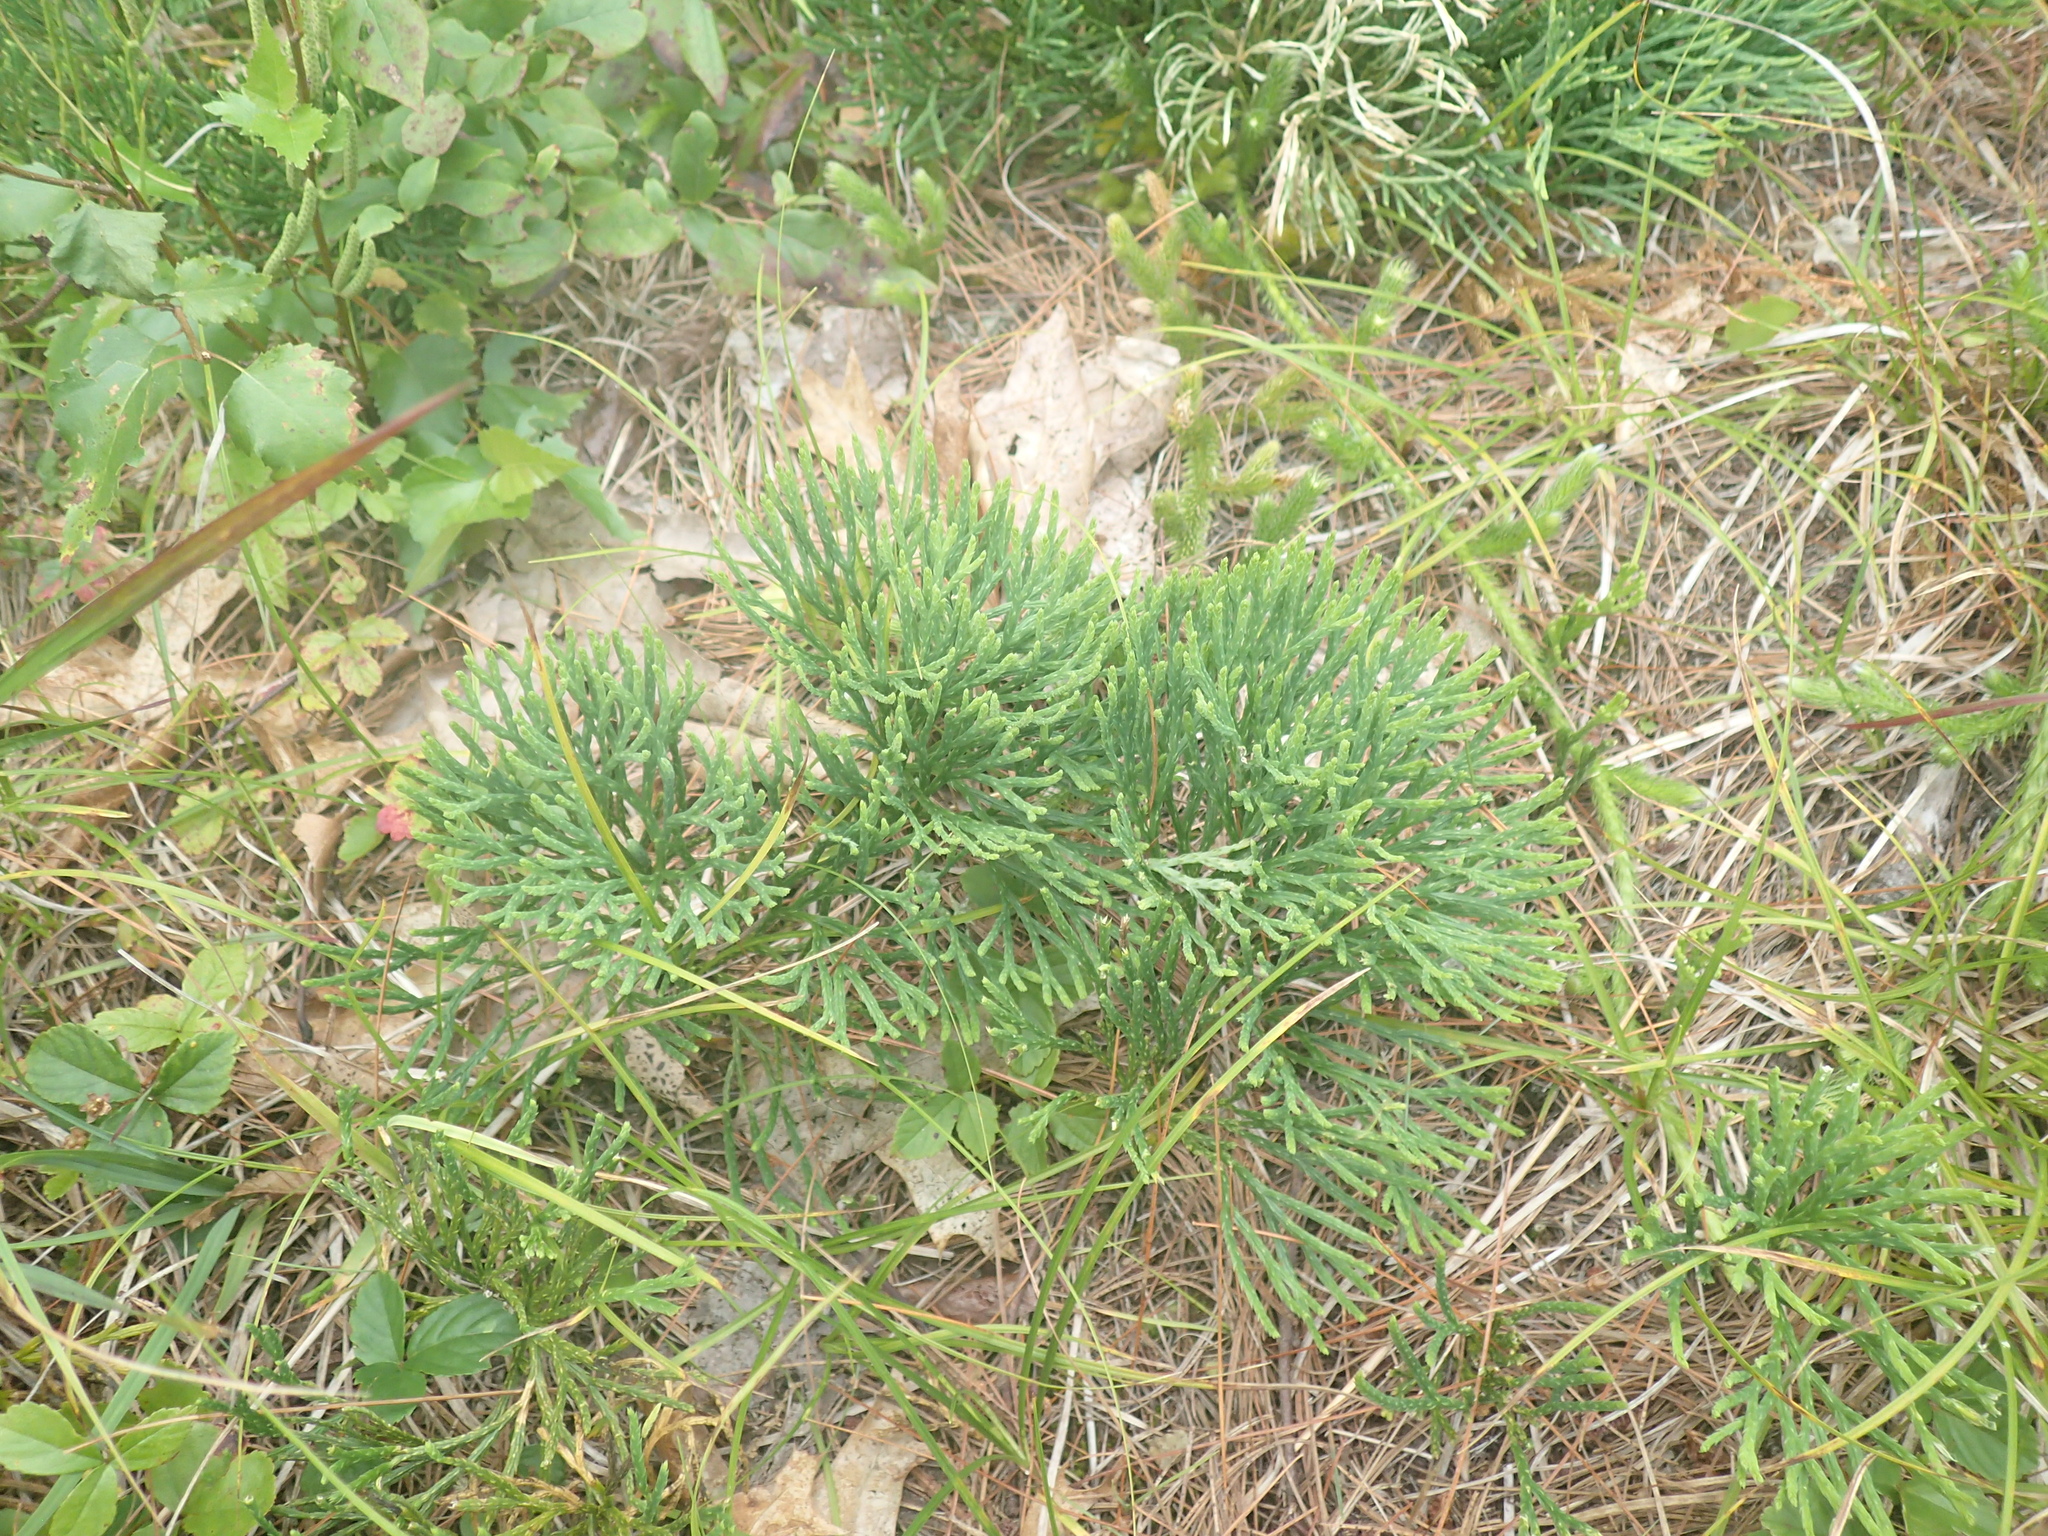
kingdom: Plantae
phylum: Tracheophyta
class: Lycopodiopsida
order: Lycopodiales
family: Lycopodiaceae
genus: Diphasiastrum
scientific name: Diphasiastrum tristachyum
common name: Blue ground-cedar
